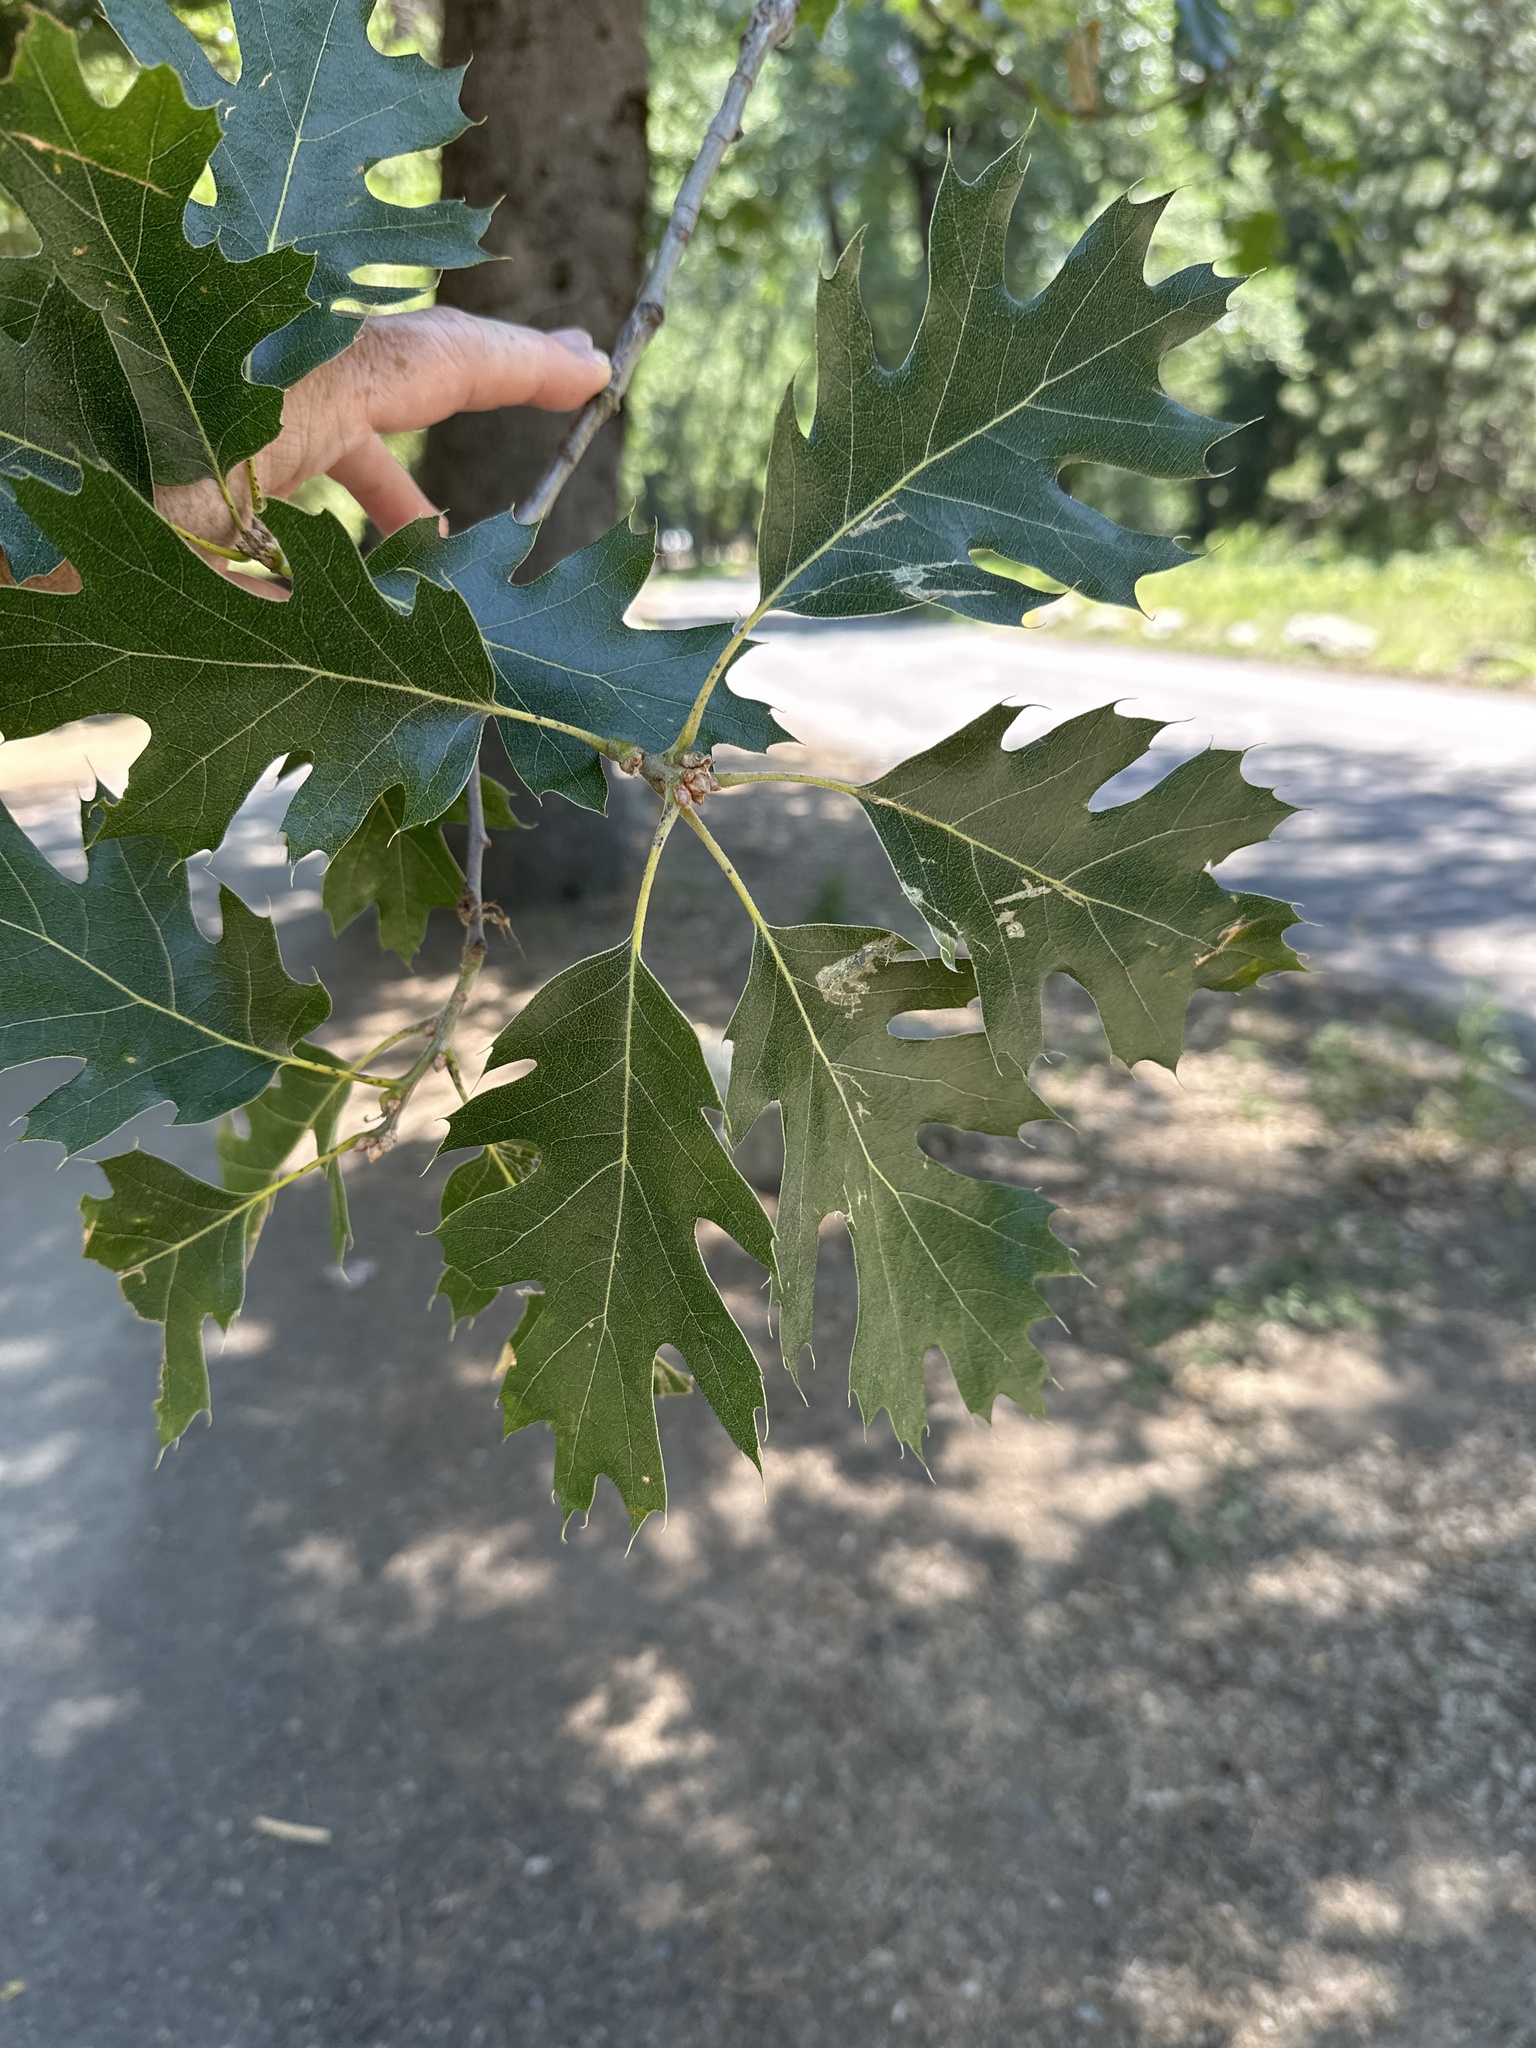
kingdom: Plantae
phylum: Tracheophyta
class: Magnoliopsida
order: Fagales
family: Fagaceae
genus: Quercus
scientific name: Quercus kelloggii
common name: California black oak
